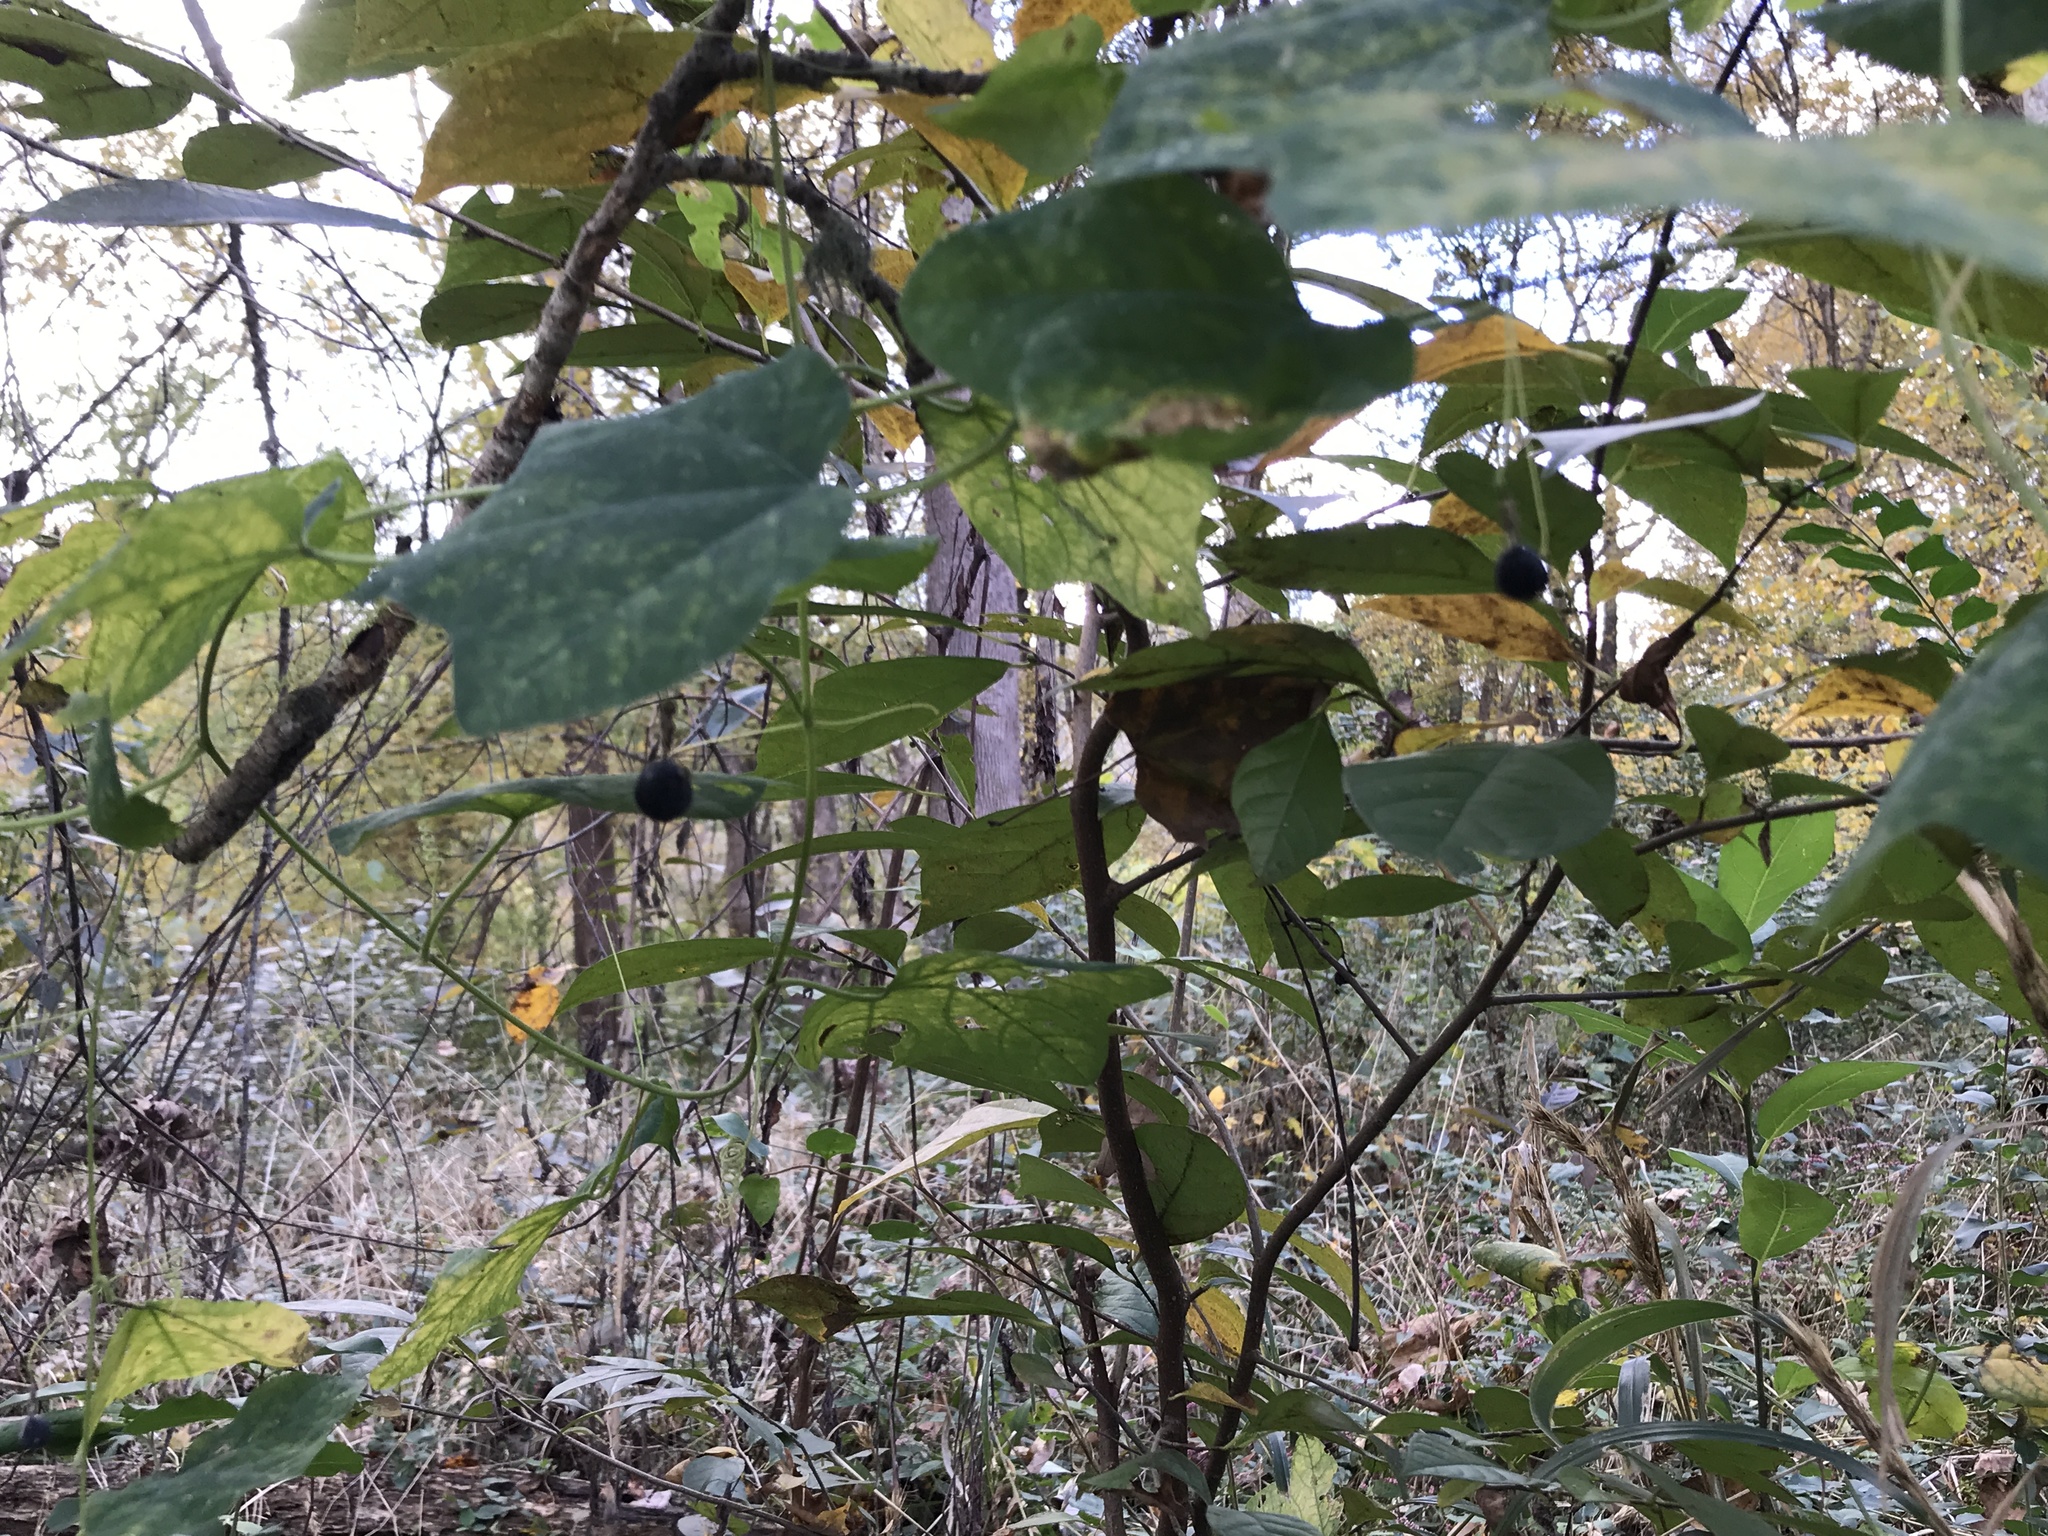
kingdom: Plantae
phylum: Tracheophyta
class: Magnoliopsida
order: Malpighiales
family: Passifloraceae
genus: Passiflora
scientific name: Passiflora lutea
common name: Yellow passionflower
